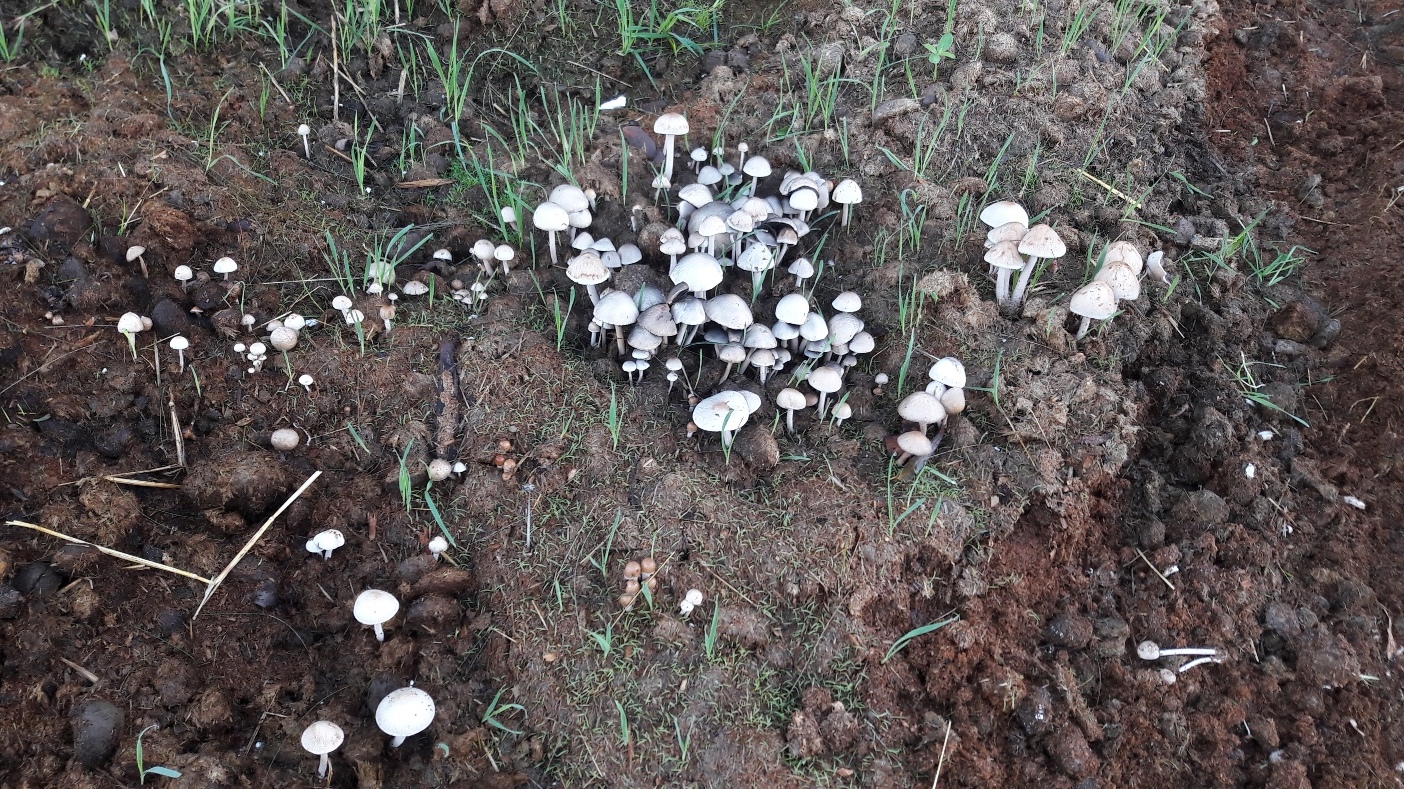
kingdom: Fungi
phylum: Basidiomycota
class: Agaricomycetes
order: Agaricales
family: Bolbitiaceae
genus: Panaeolus
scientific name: Panaeolus antillarum
